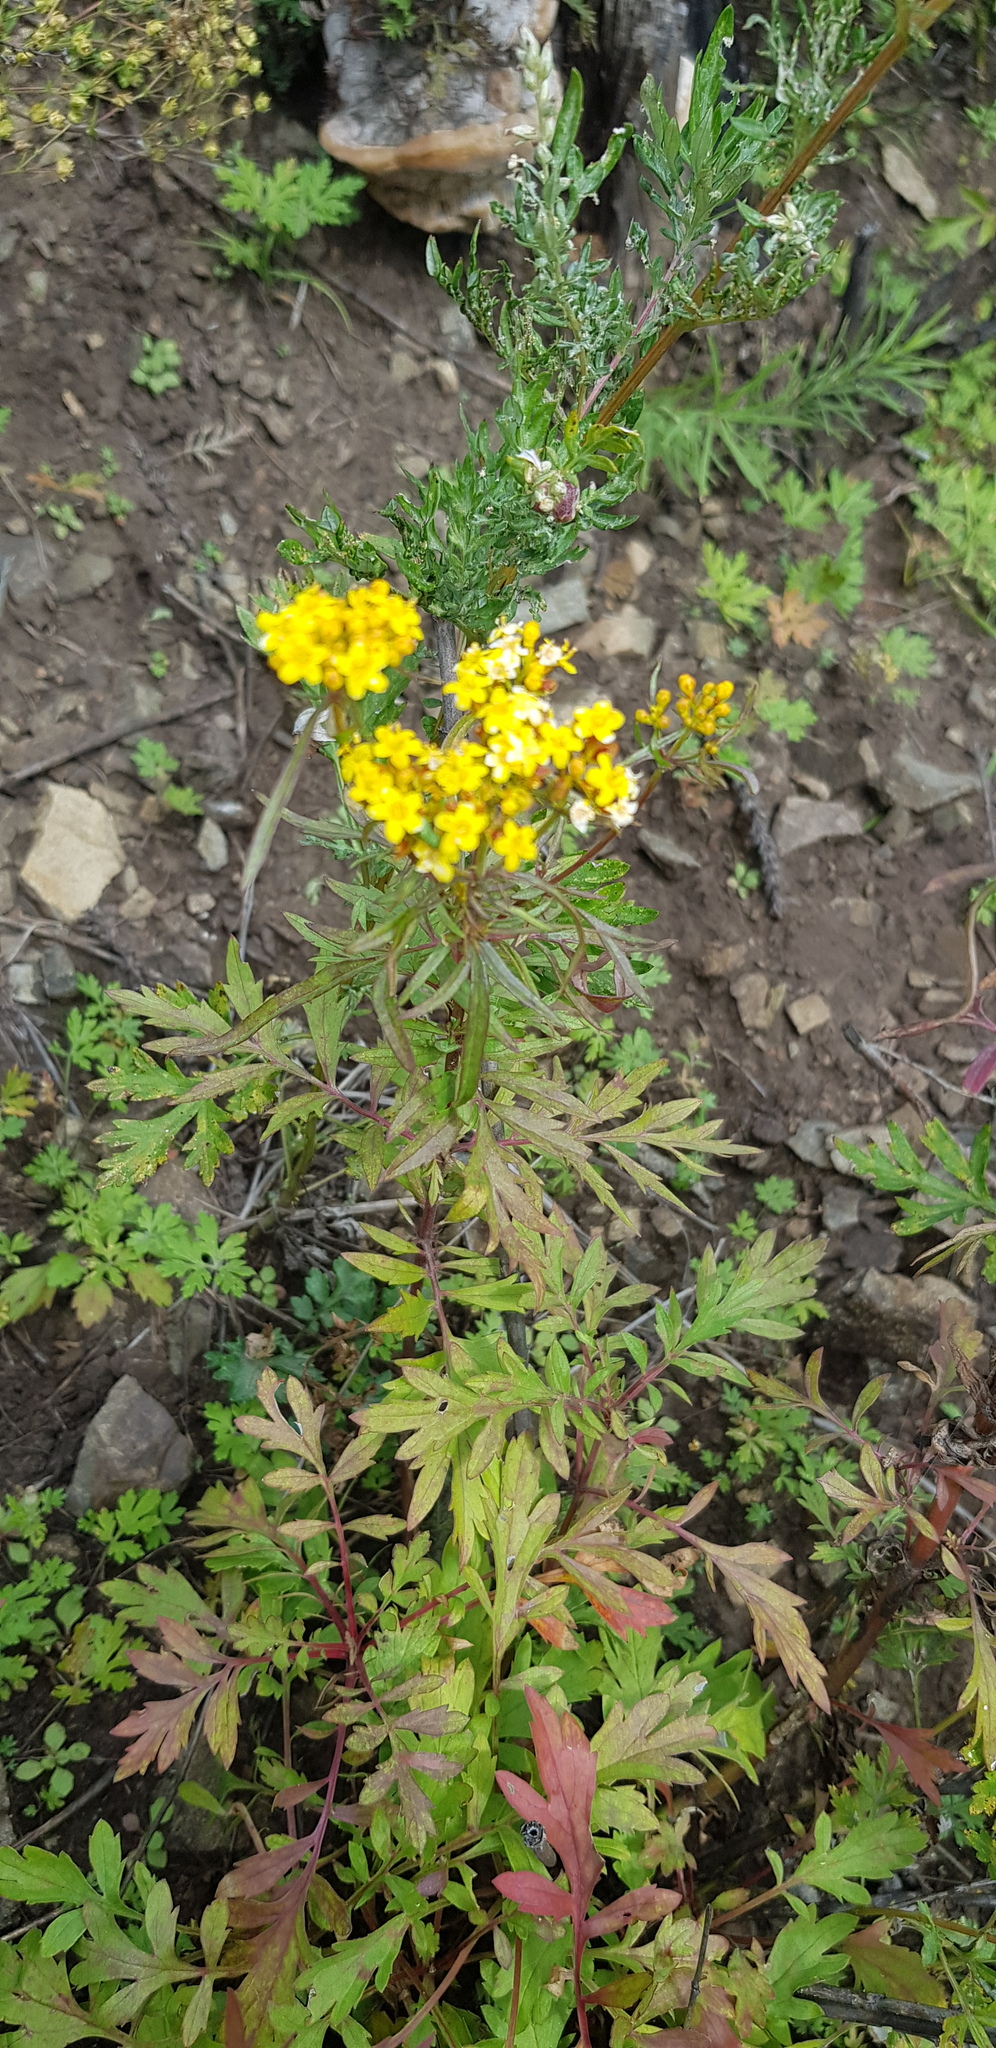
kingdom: Plantae
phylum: Tracheophyta
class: Magnoliopsida
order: Dipsacales
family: Caprifoliaceae
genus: Patrinia
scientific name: Patrinia rupestris
